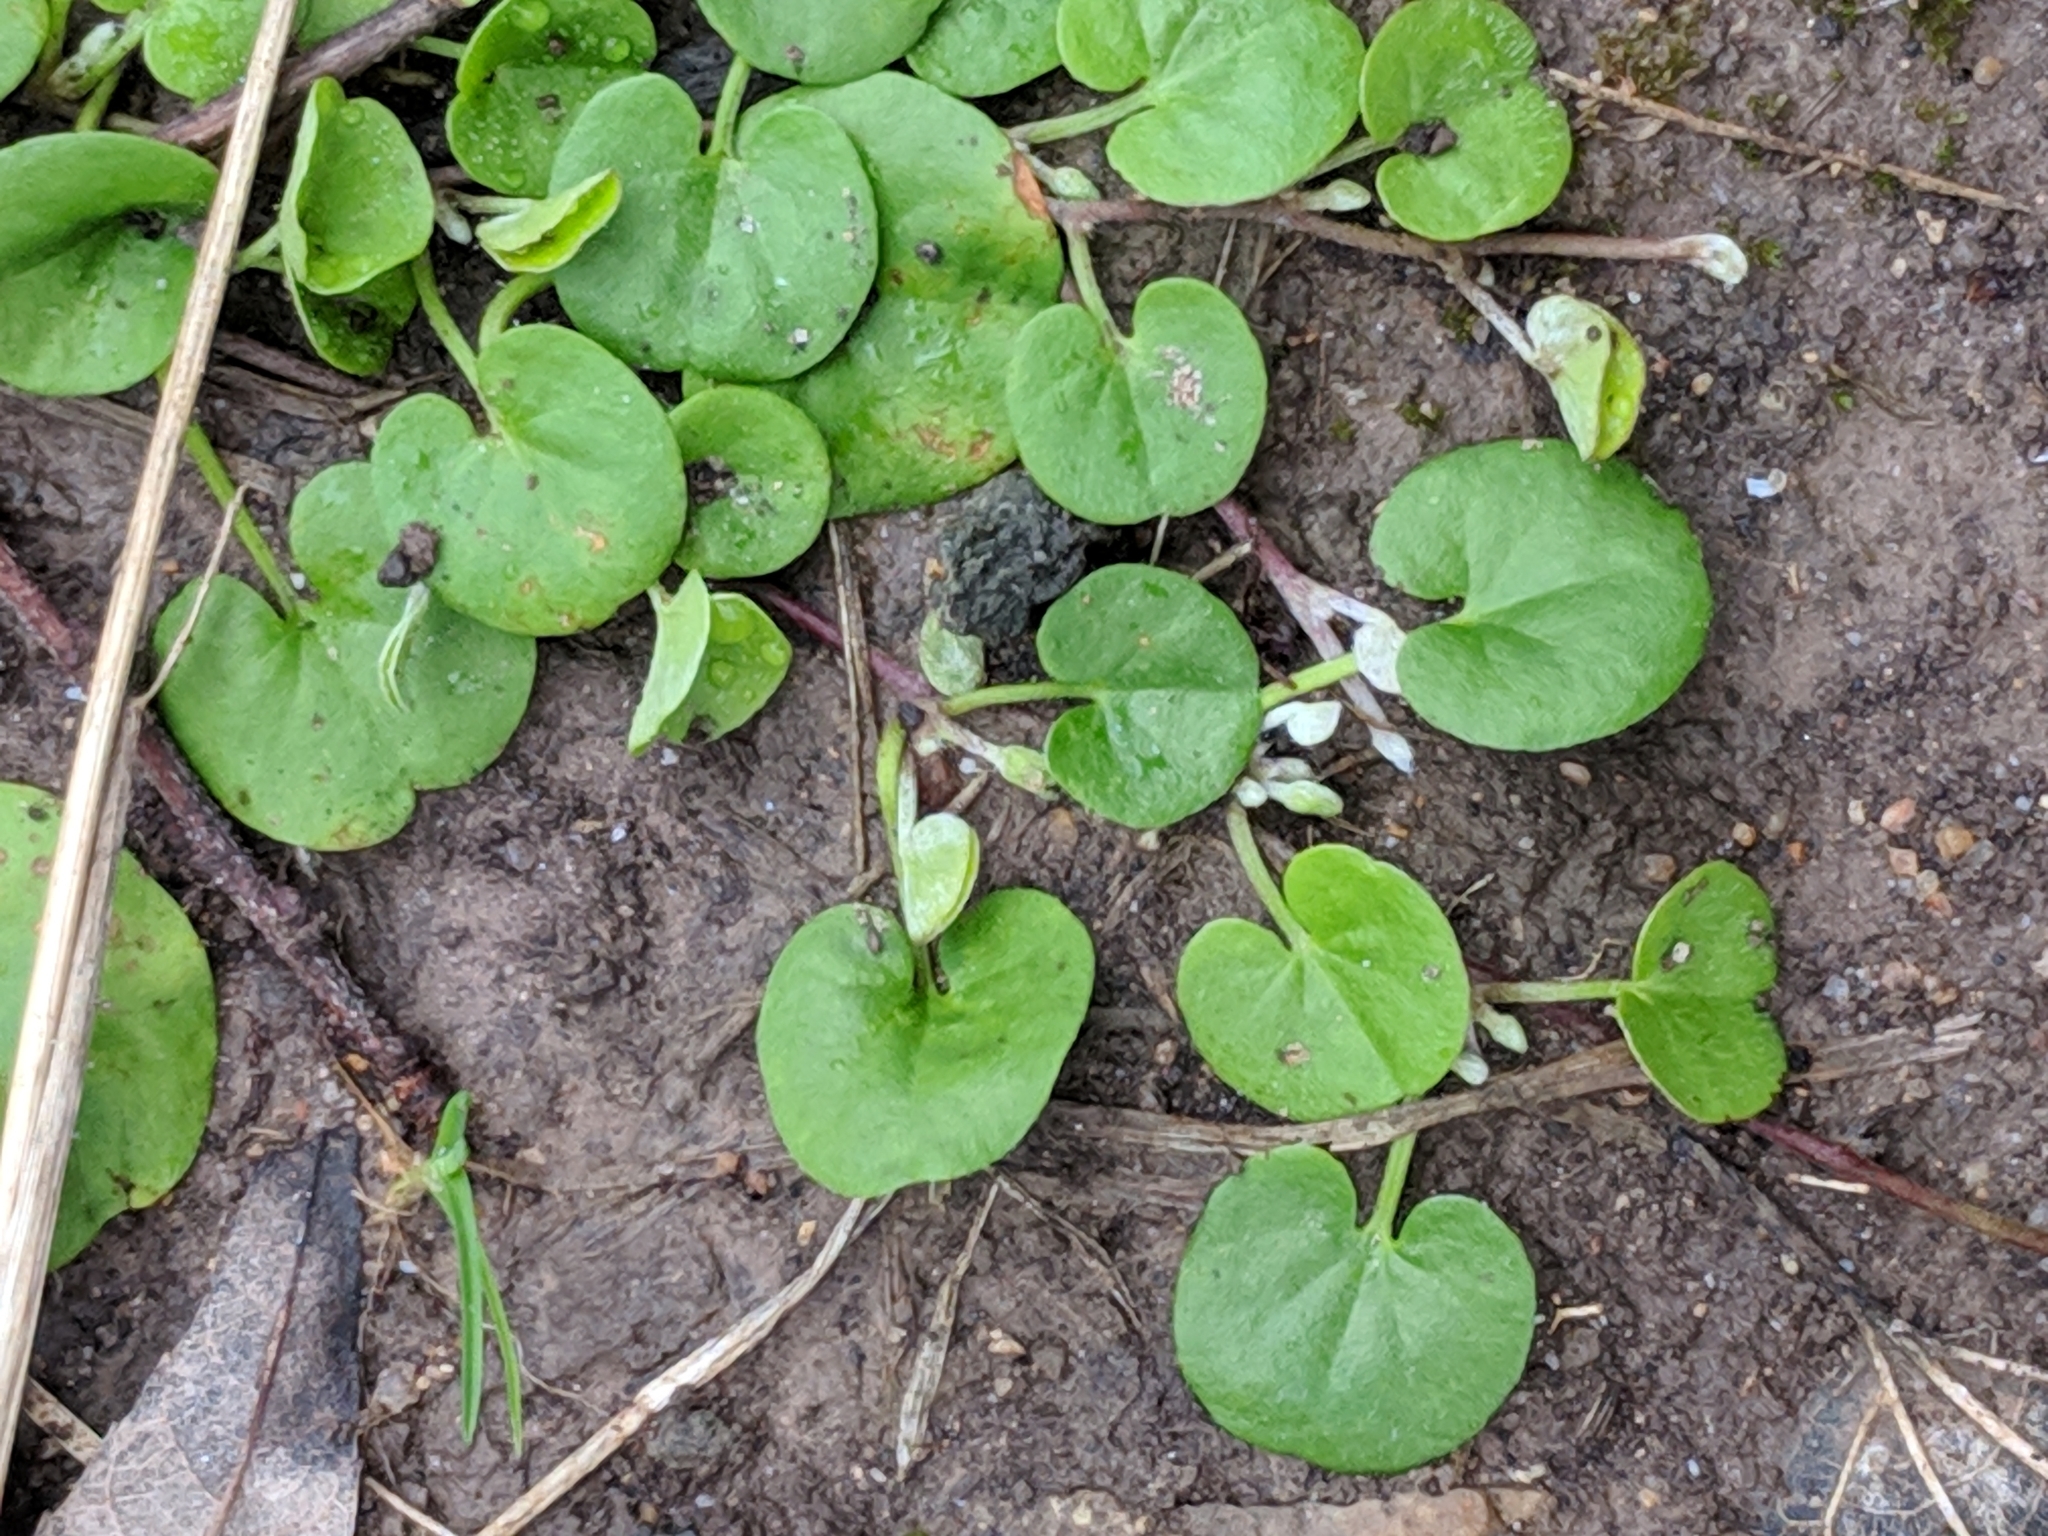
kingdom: Plantae
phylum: Tracheophyta
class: Magnoliopsida
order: Solanales
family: Convolvulaceae
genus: Dichondra
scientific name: Dichondra carolinensis
